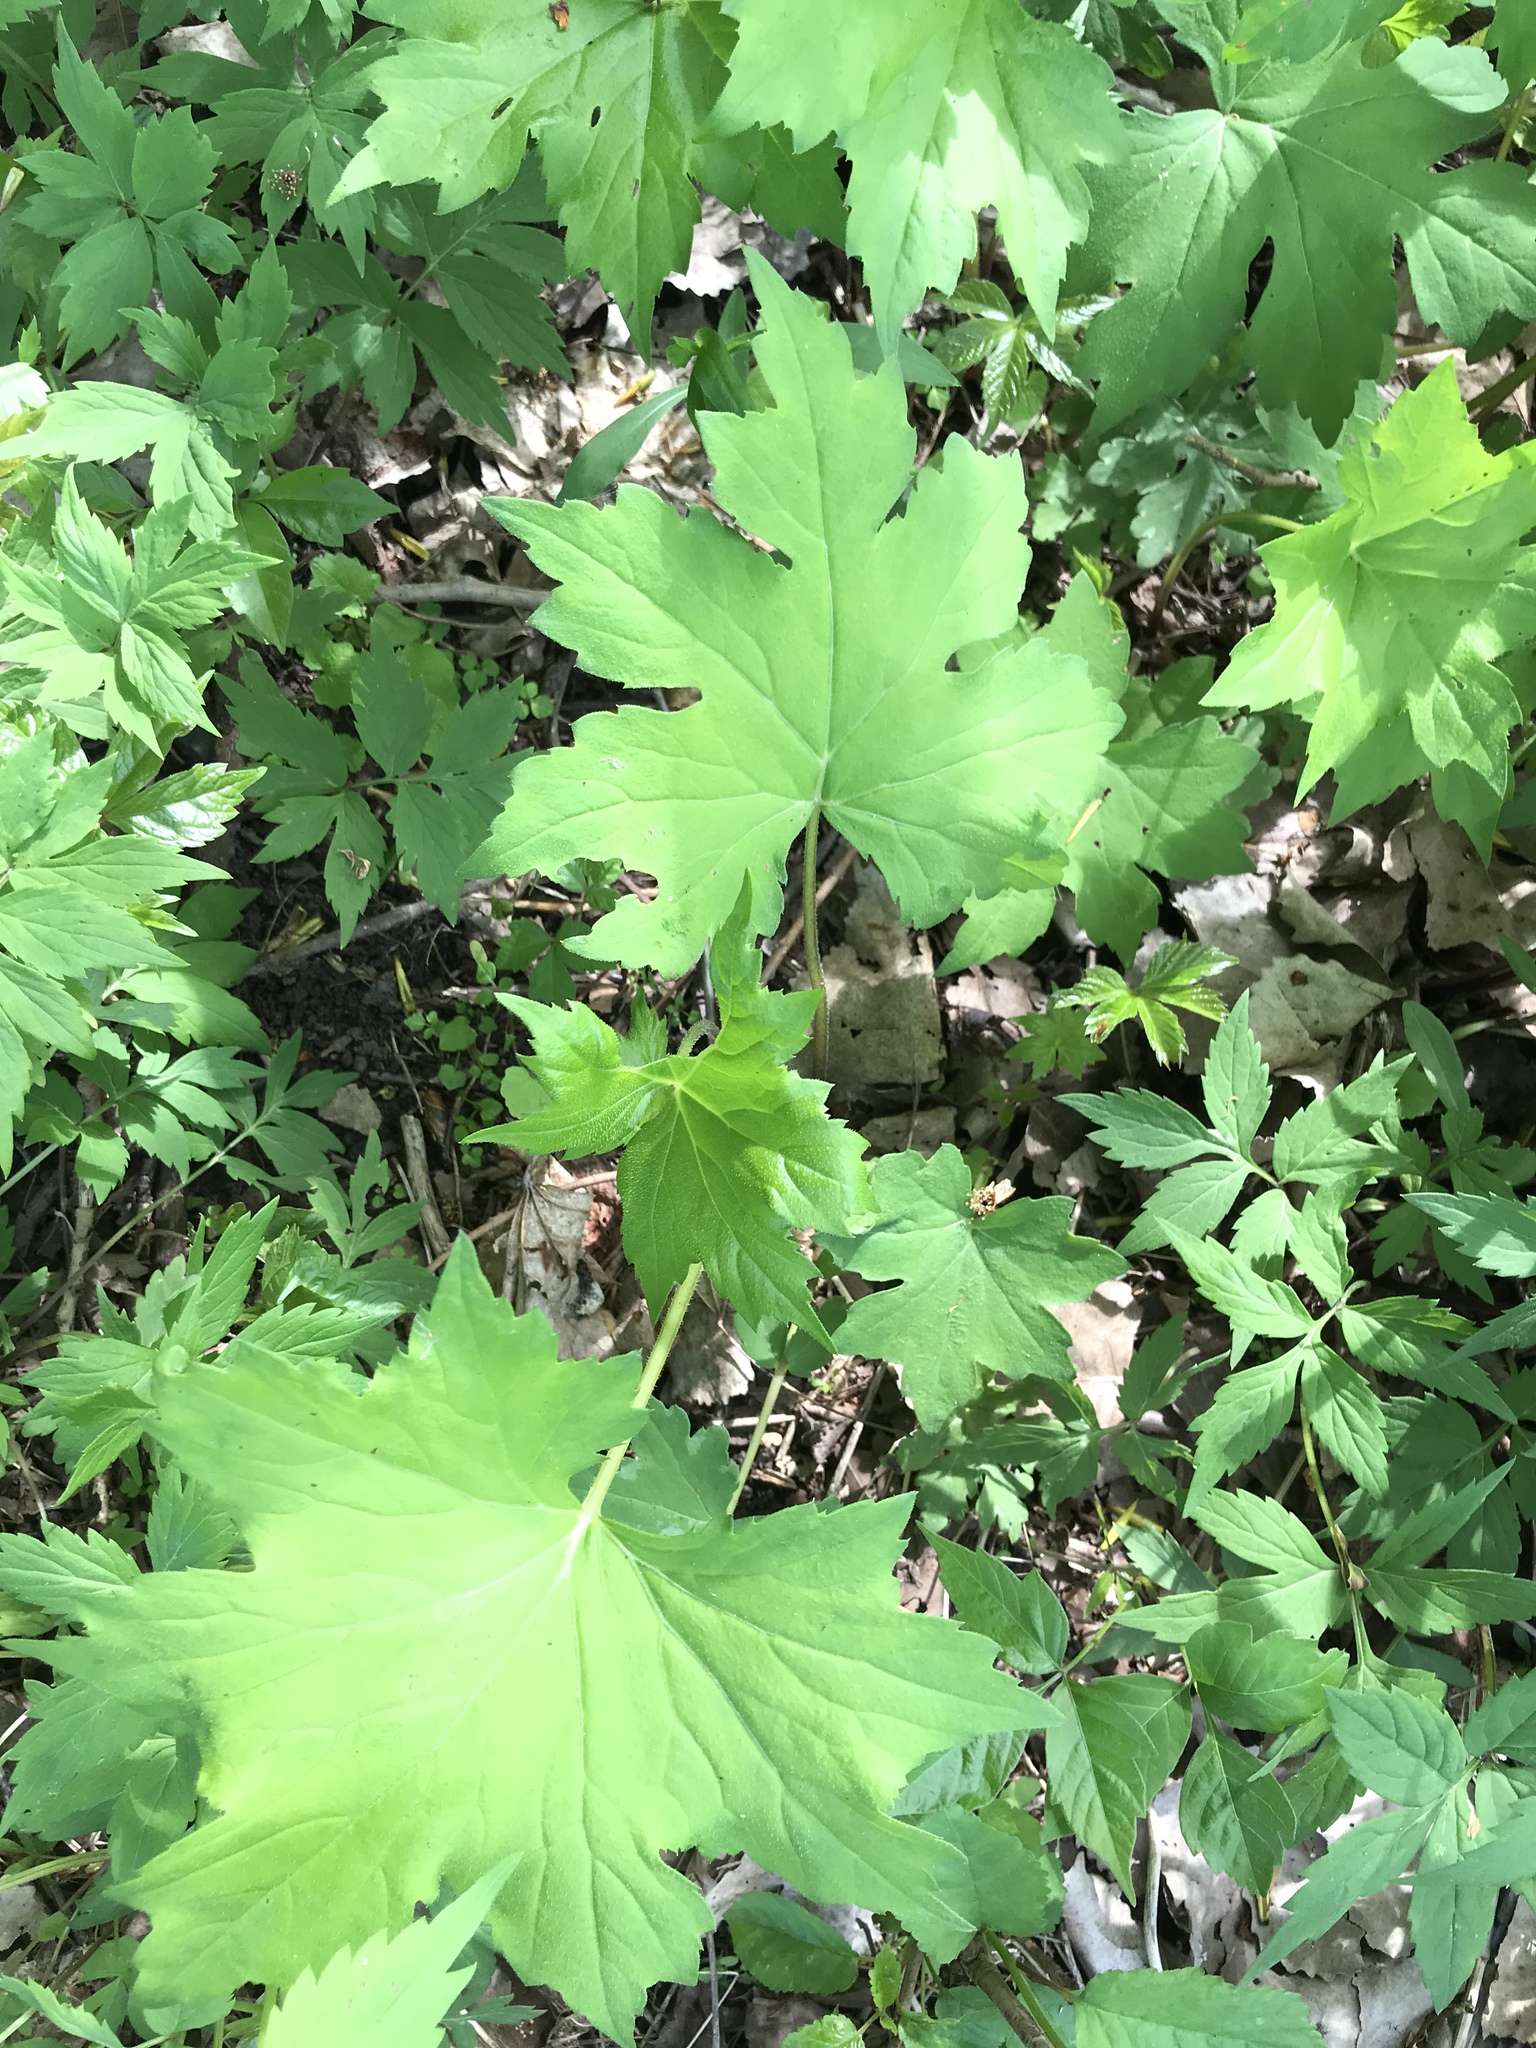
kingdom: Plantae
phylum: Tracheophyta
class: Magnoliopsida
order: Boraginales
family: Hydrophyllaceae
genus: Hydrophyllum
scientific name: Hydrophyllum canadense
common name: Canada waterleaf
